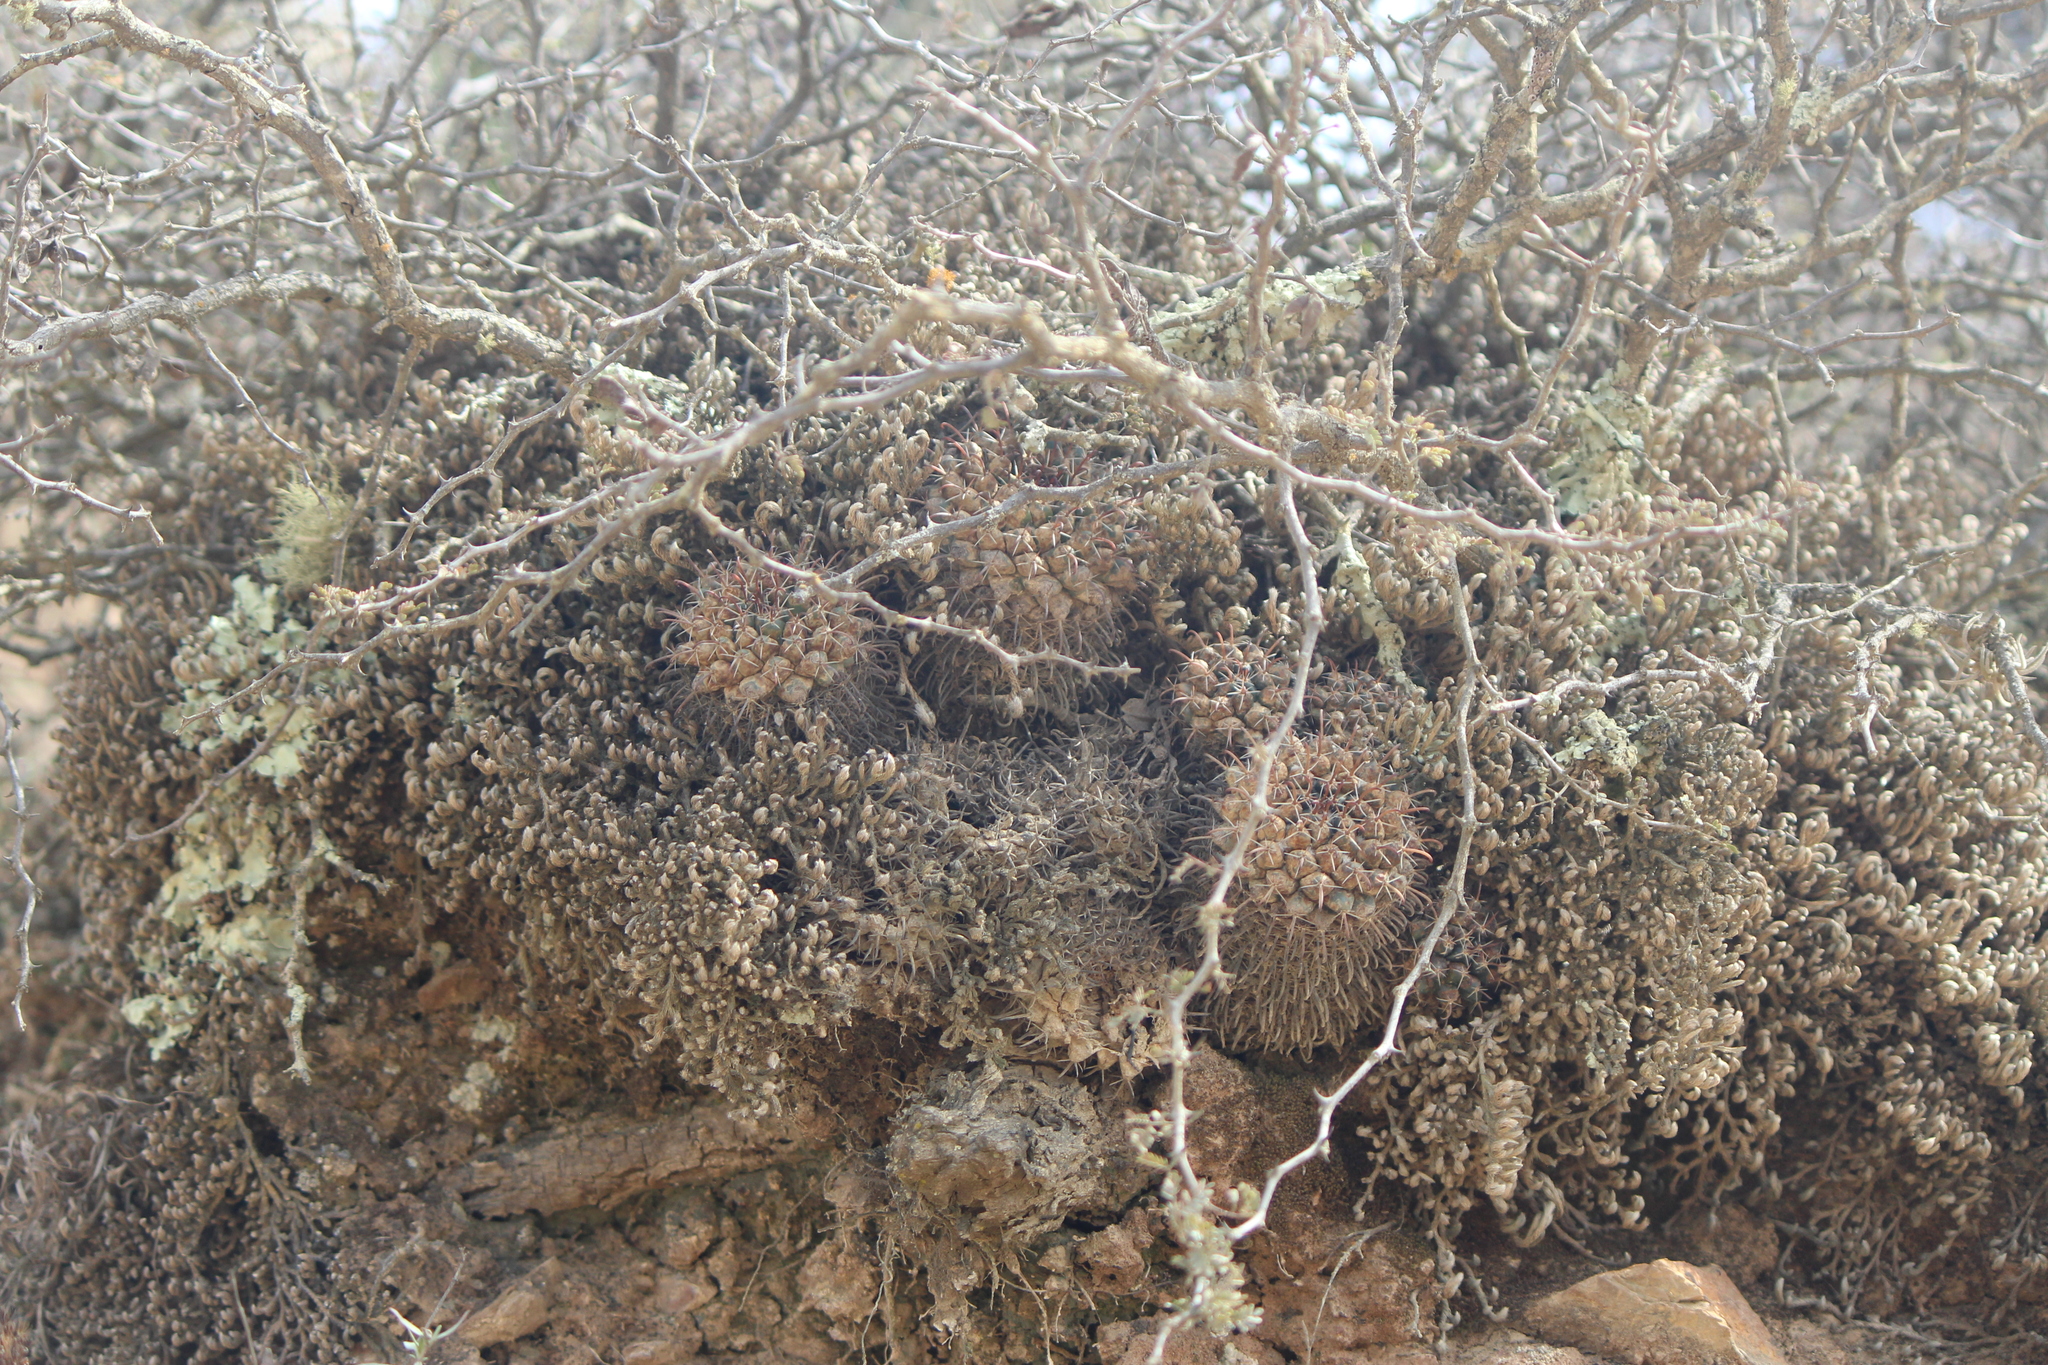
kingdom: Plantae
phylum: Tracheophyta
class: Magnoliopsida
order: Caryophyllales
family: Cactaceae
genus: Mammillaria
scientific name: Mammillaria uncinata
